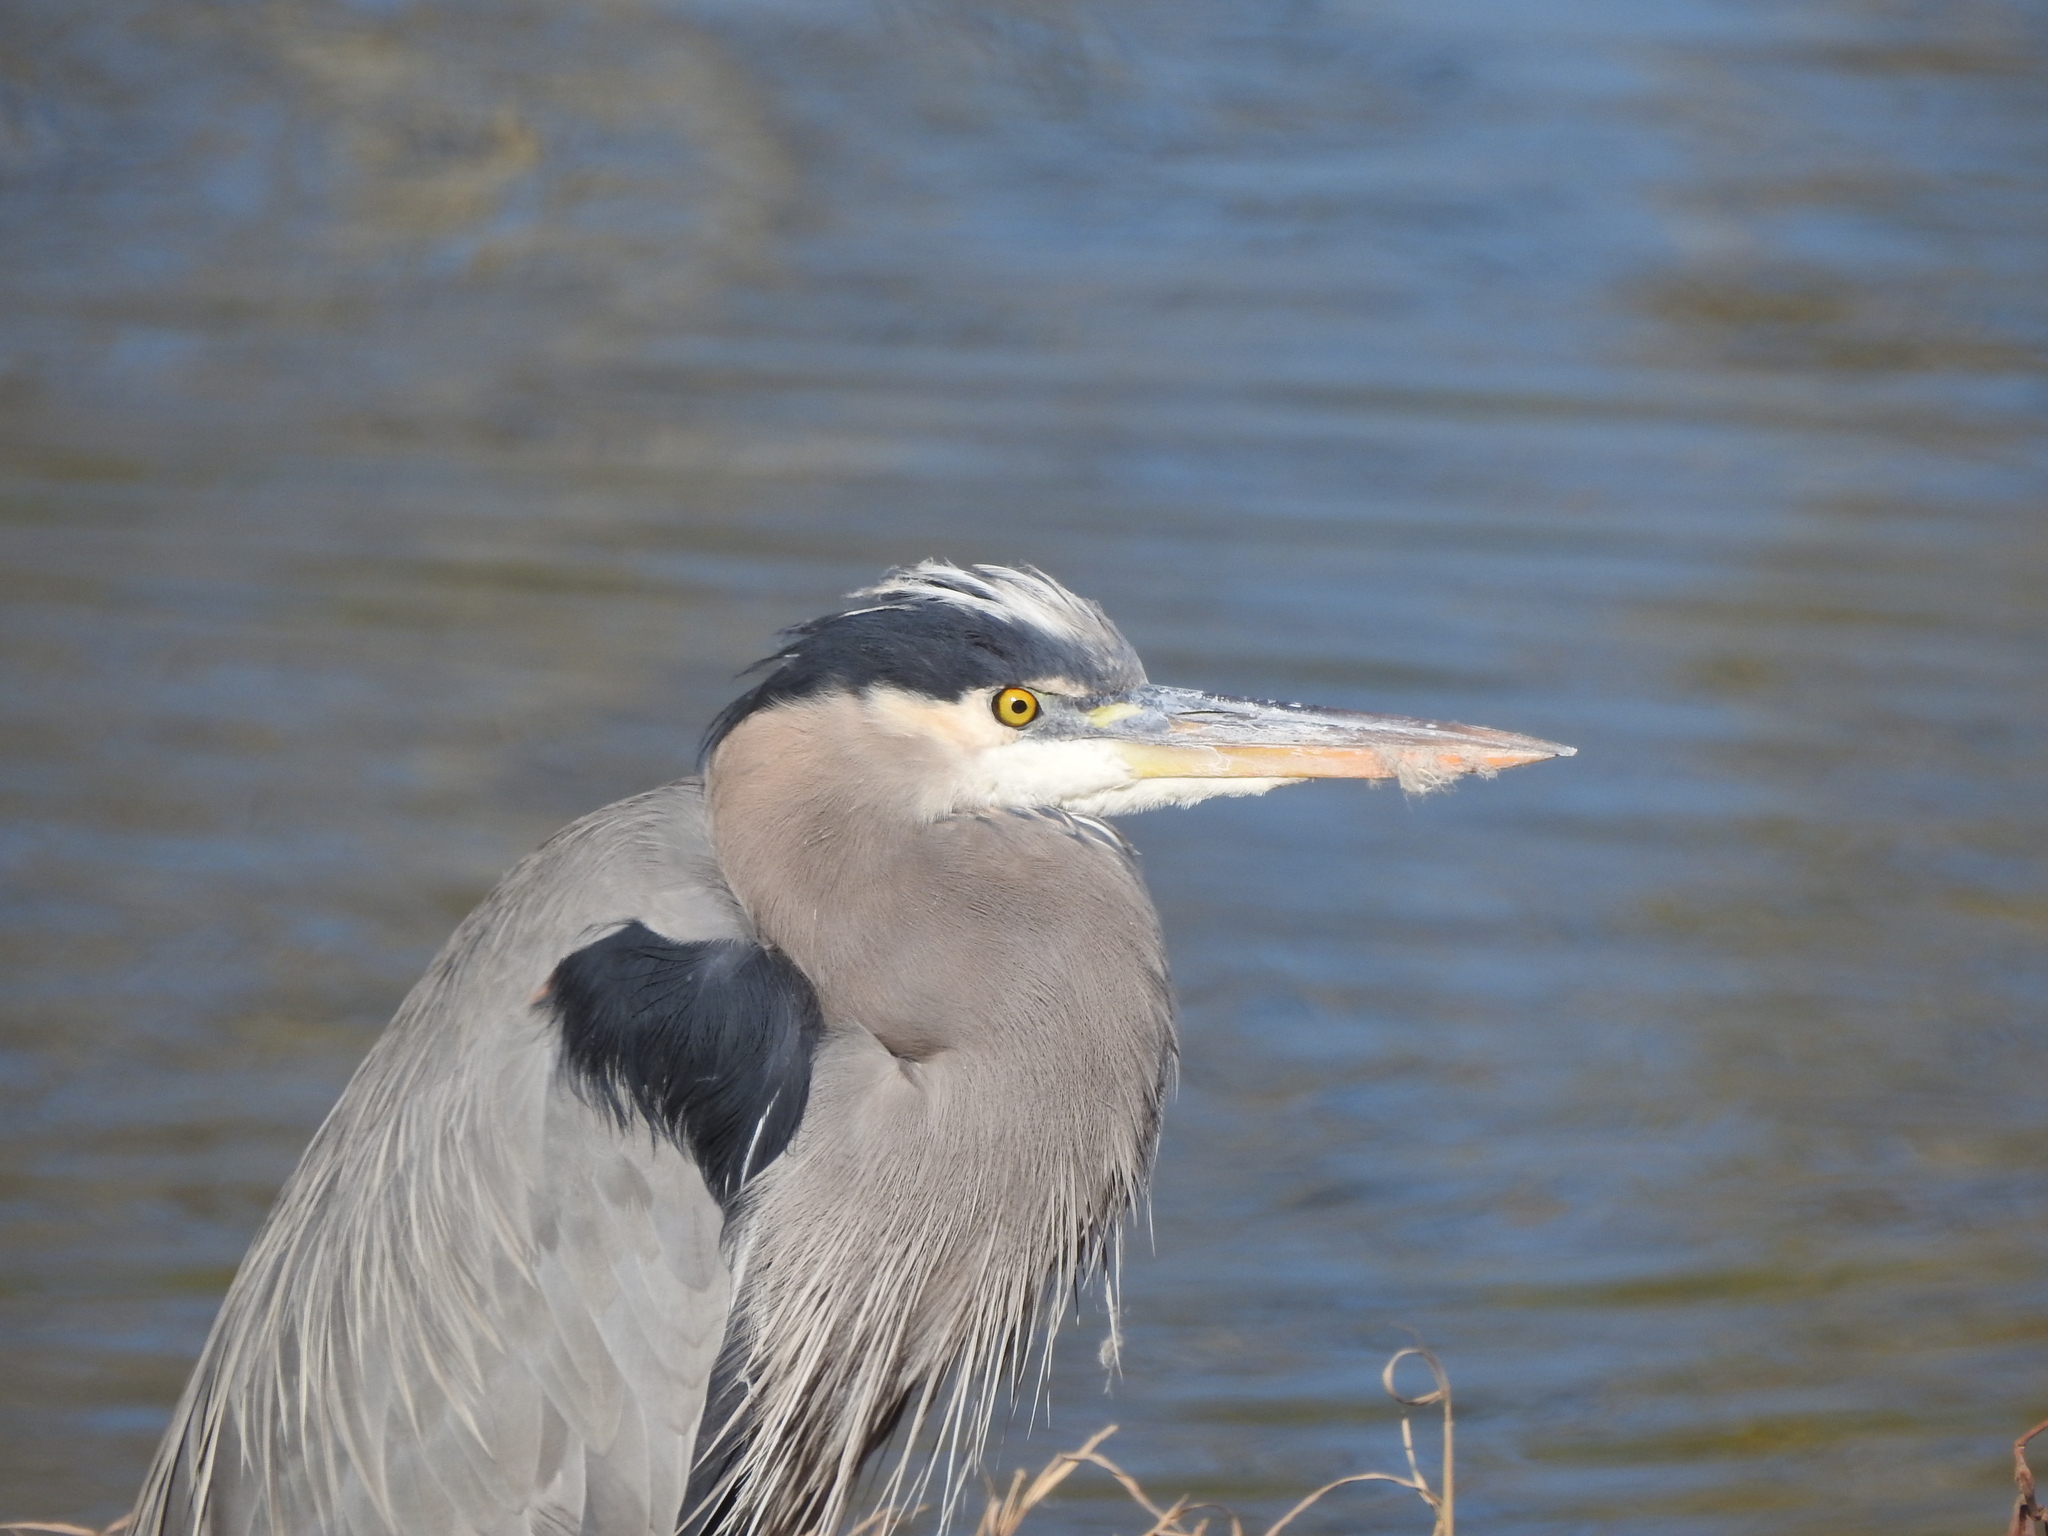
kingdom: Animalia
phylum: Chordata
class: Aves
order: Pelecaniformes
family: Ardeidae
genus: Ardea
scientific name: Ardea herodias
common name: Great blue heron
